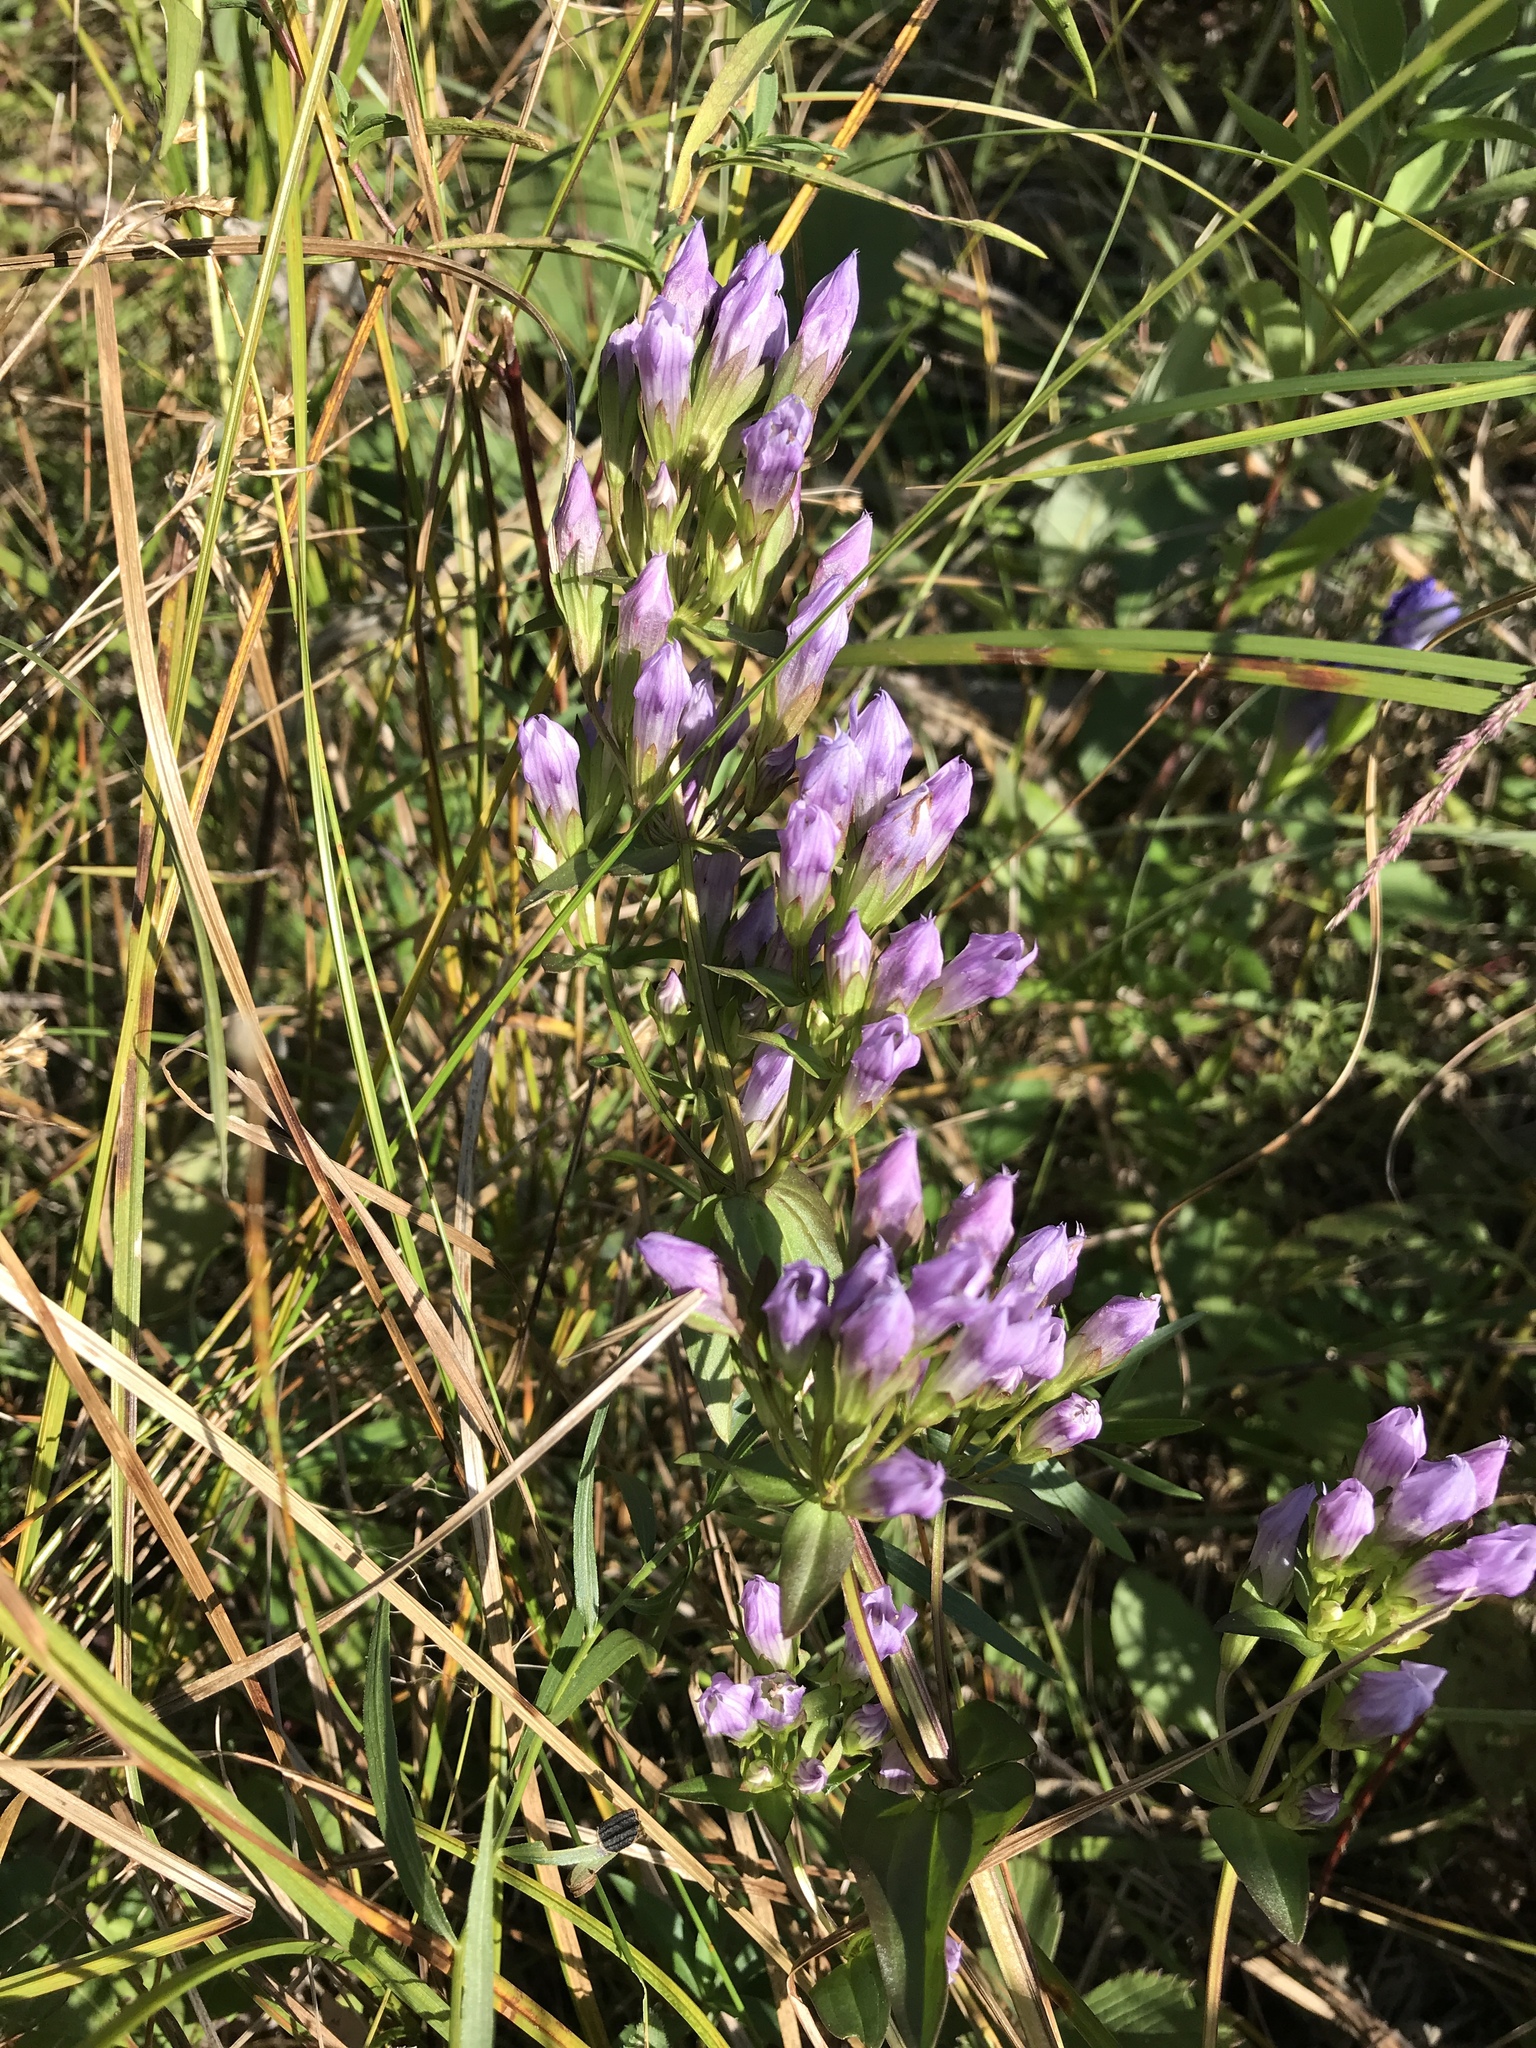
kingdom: Plantae
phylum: Tracheophyta
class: Magnoliopsida
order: Gentianales
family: Gentianaceae
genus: Gentianella
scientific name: Gentianella quinquefolia
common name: Agueweed
